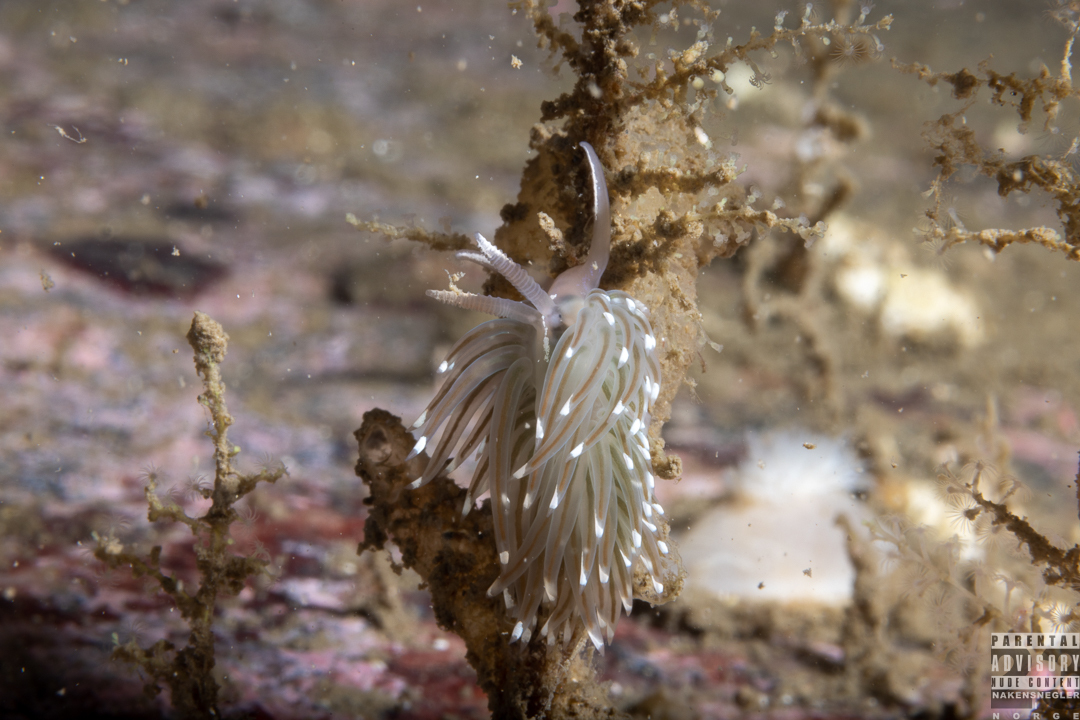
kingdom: Animalia
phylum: Mollusca
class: Gastropoda
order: Nudibranchia
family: Facelinidae
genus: Facelina
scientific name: Facelina bostoniensis
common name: Boston facelina
